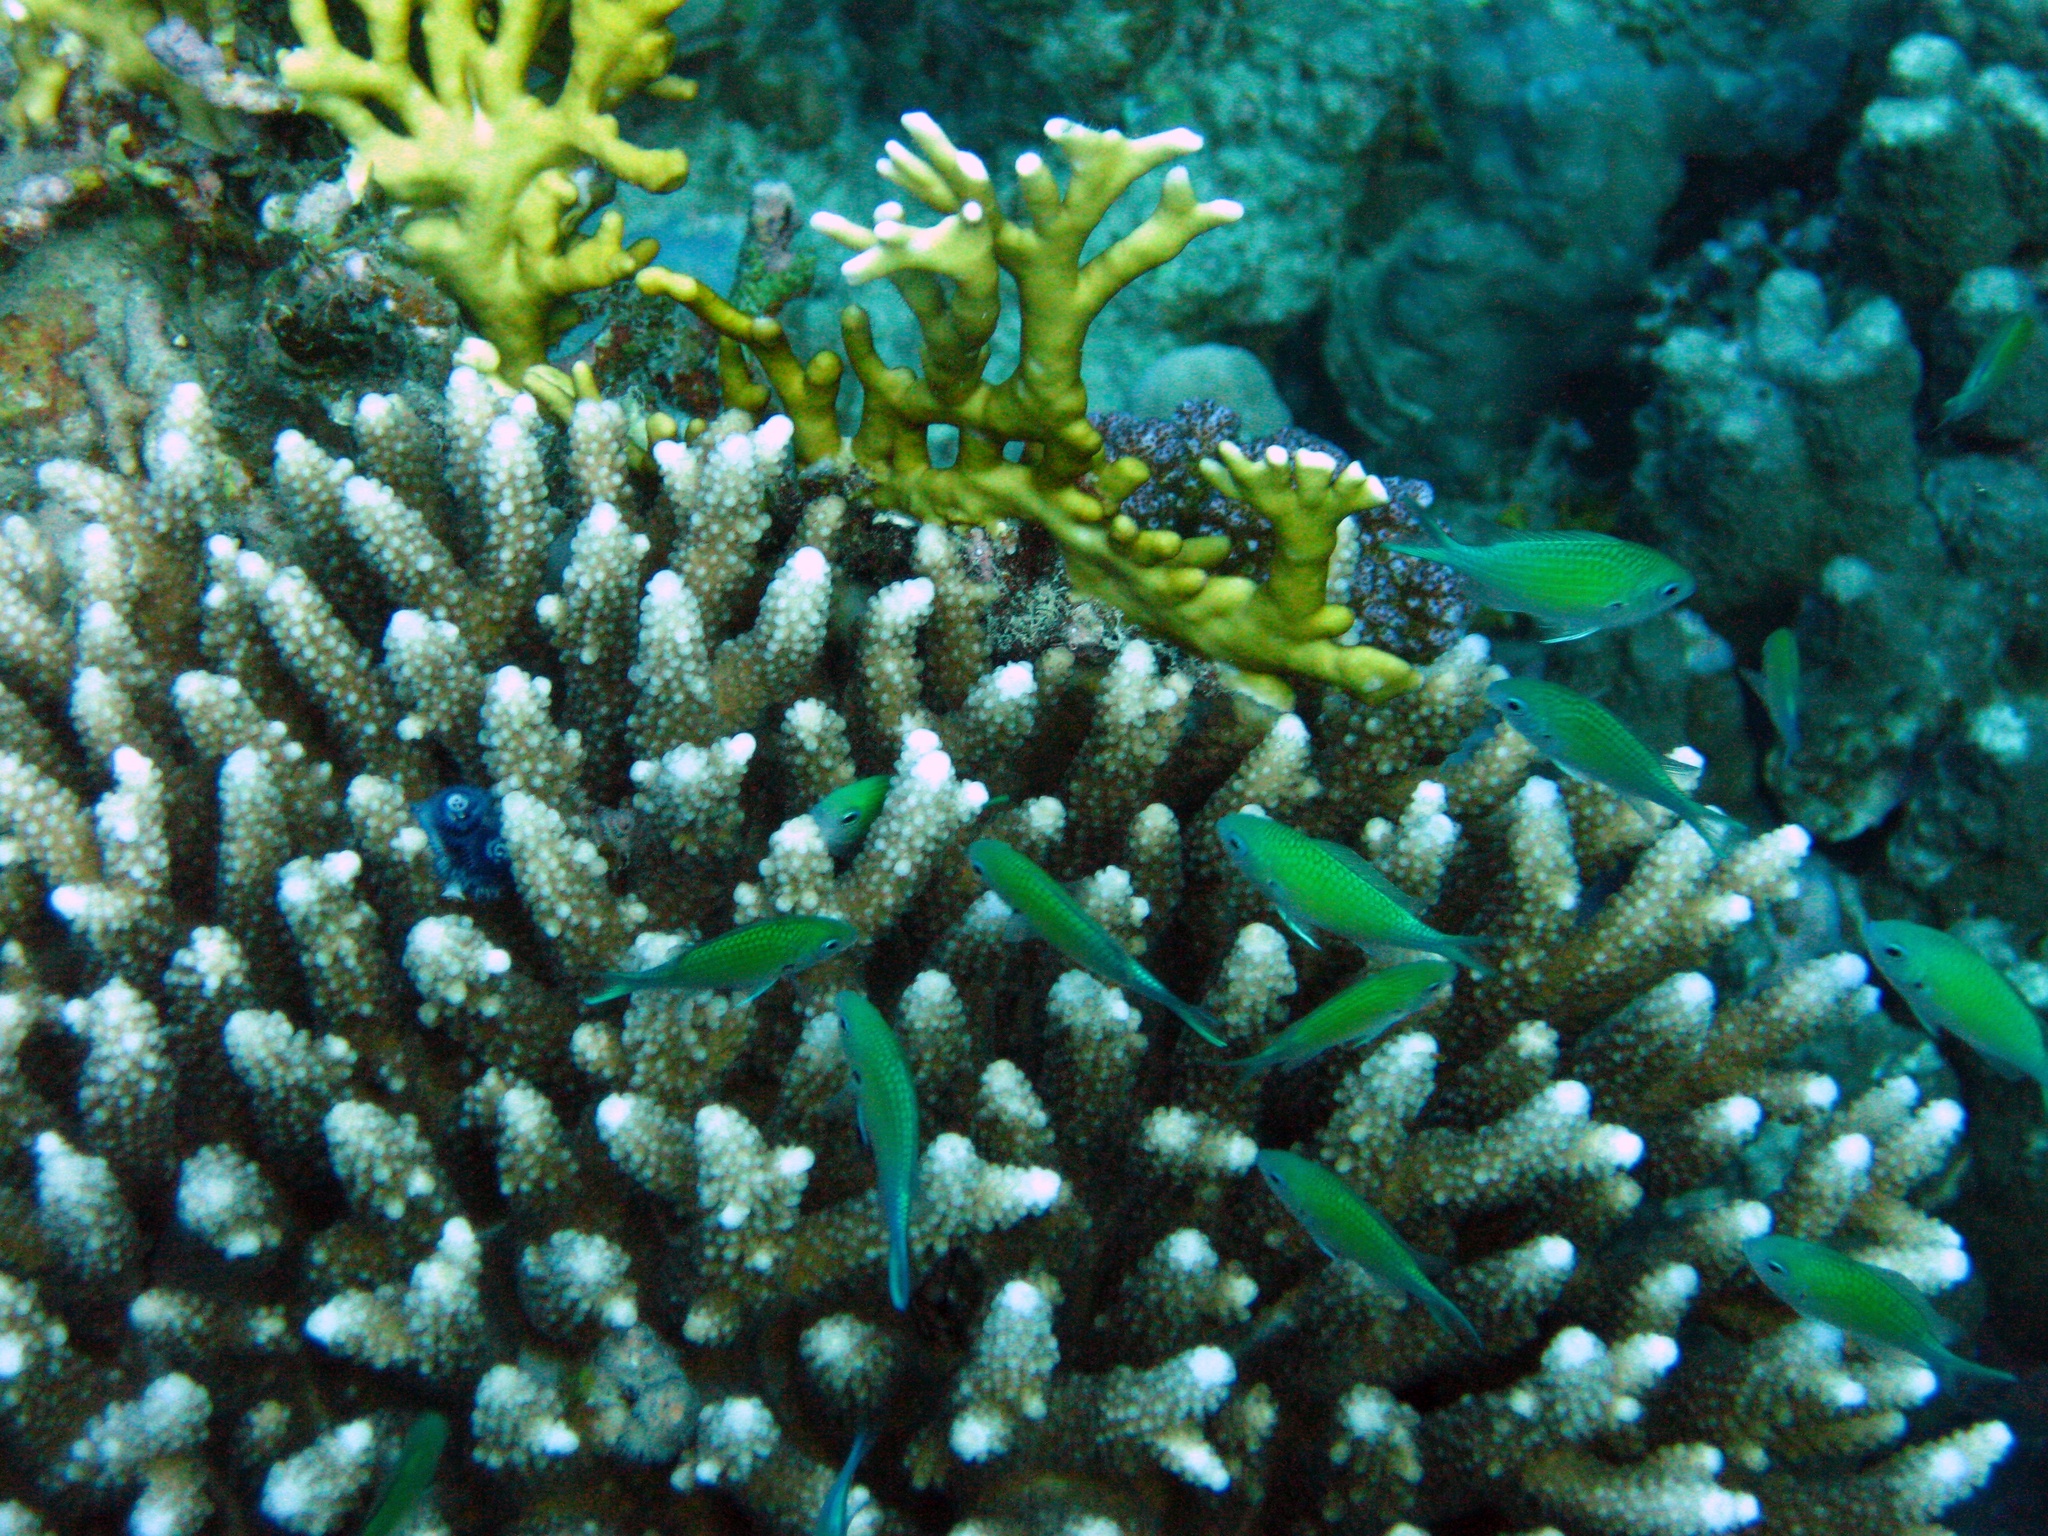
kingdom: Animalia
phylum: Chordata
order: Perciformes
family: Pomacentridae
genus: Chromis
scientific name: Chromis atripectoralis
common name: Black-axil chromis
